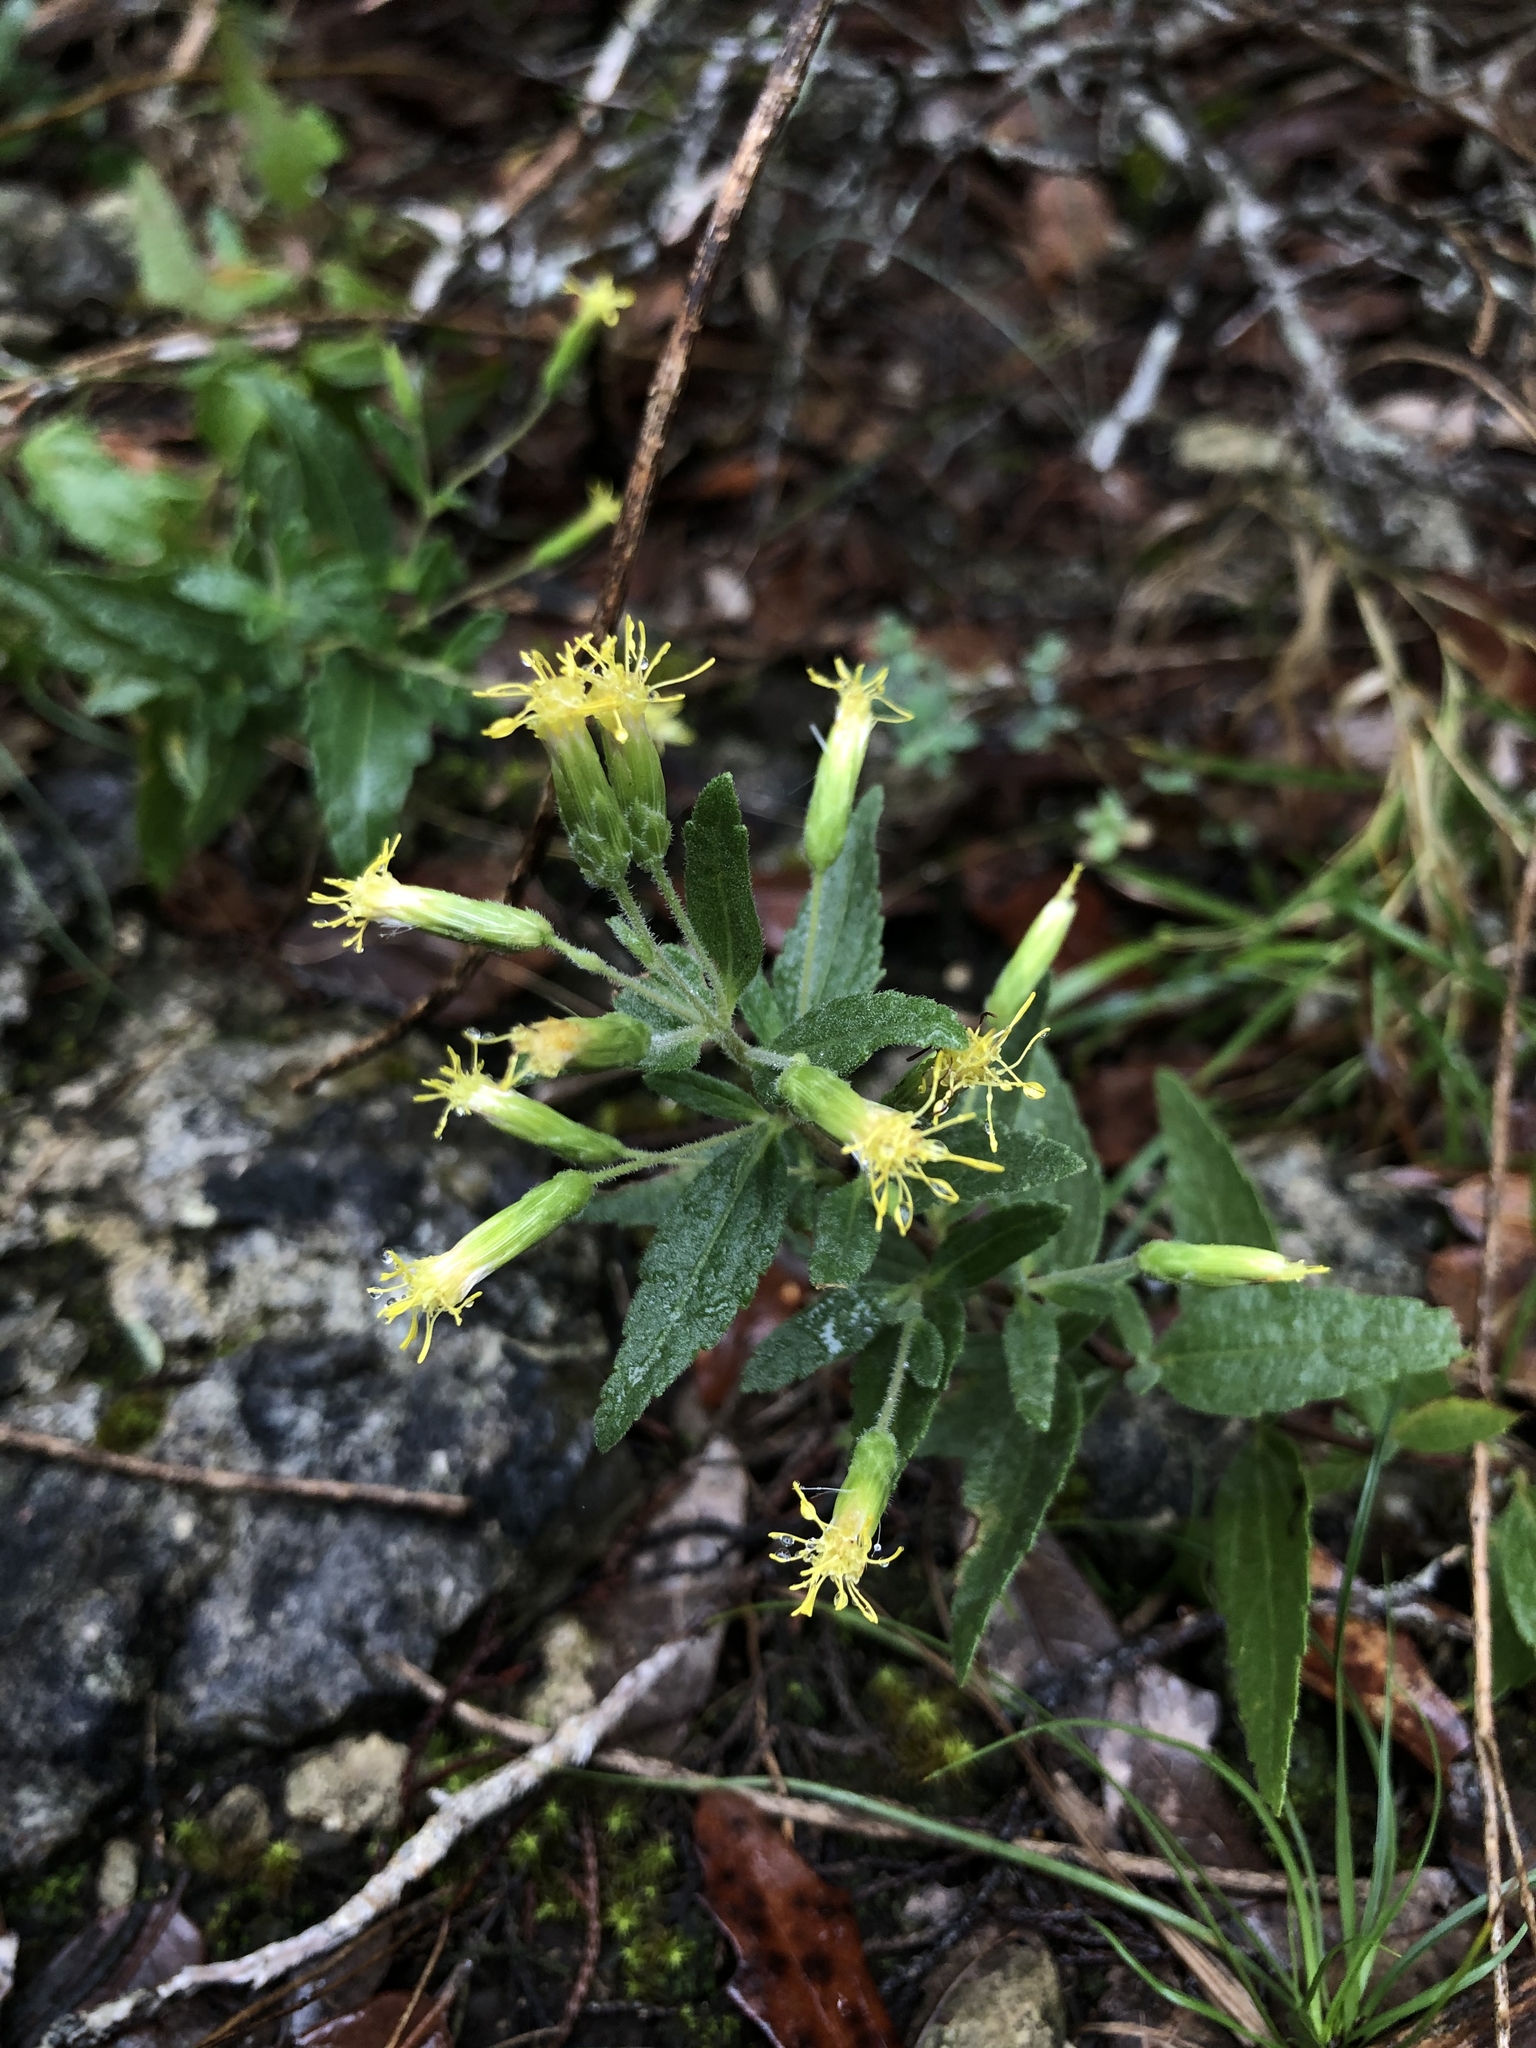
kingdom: Plantae
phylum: Tracheophyta
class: Magnoliopsida
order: Asterales
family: Asteraceae
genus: Brickellia
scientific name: Brickellia cylindracea
